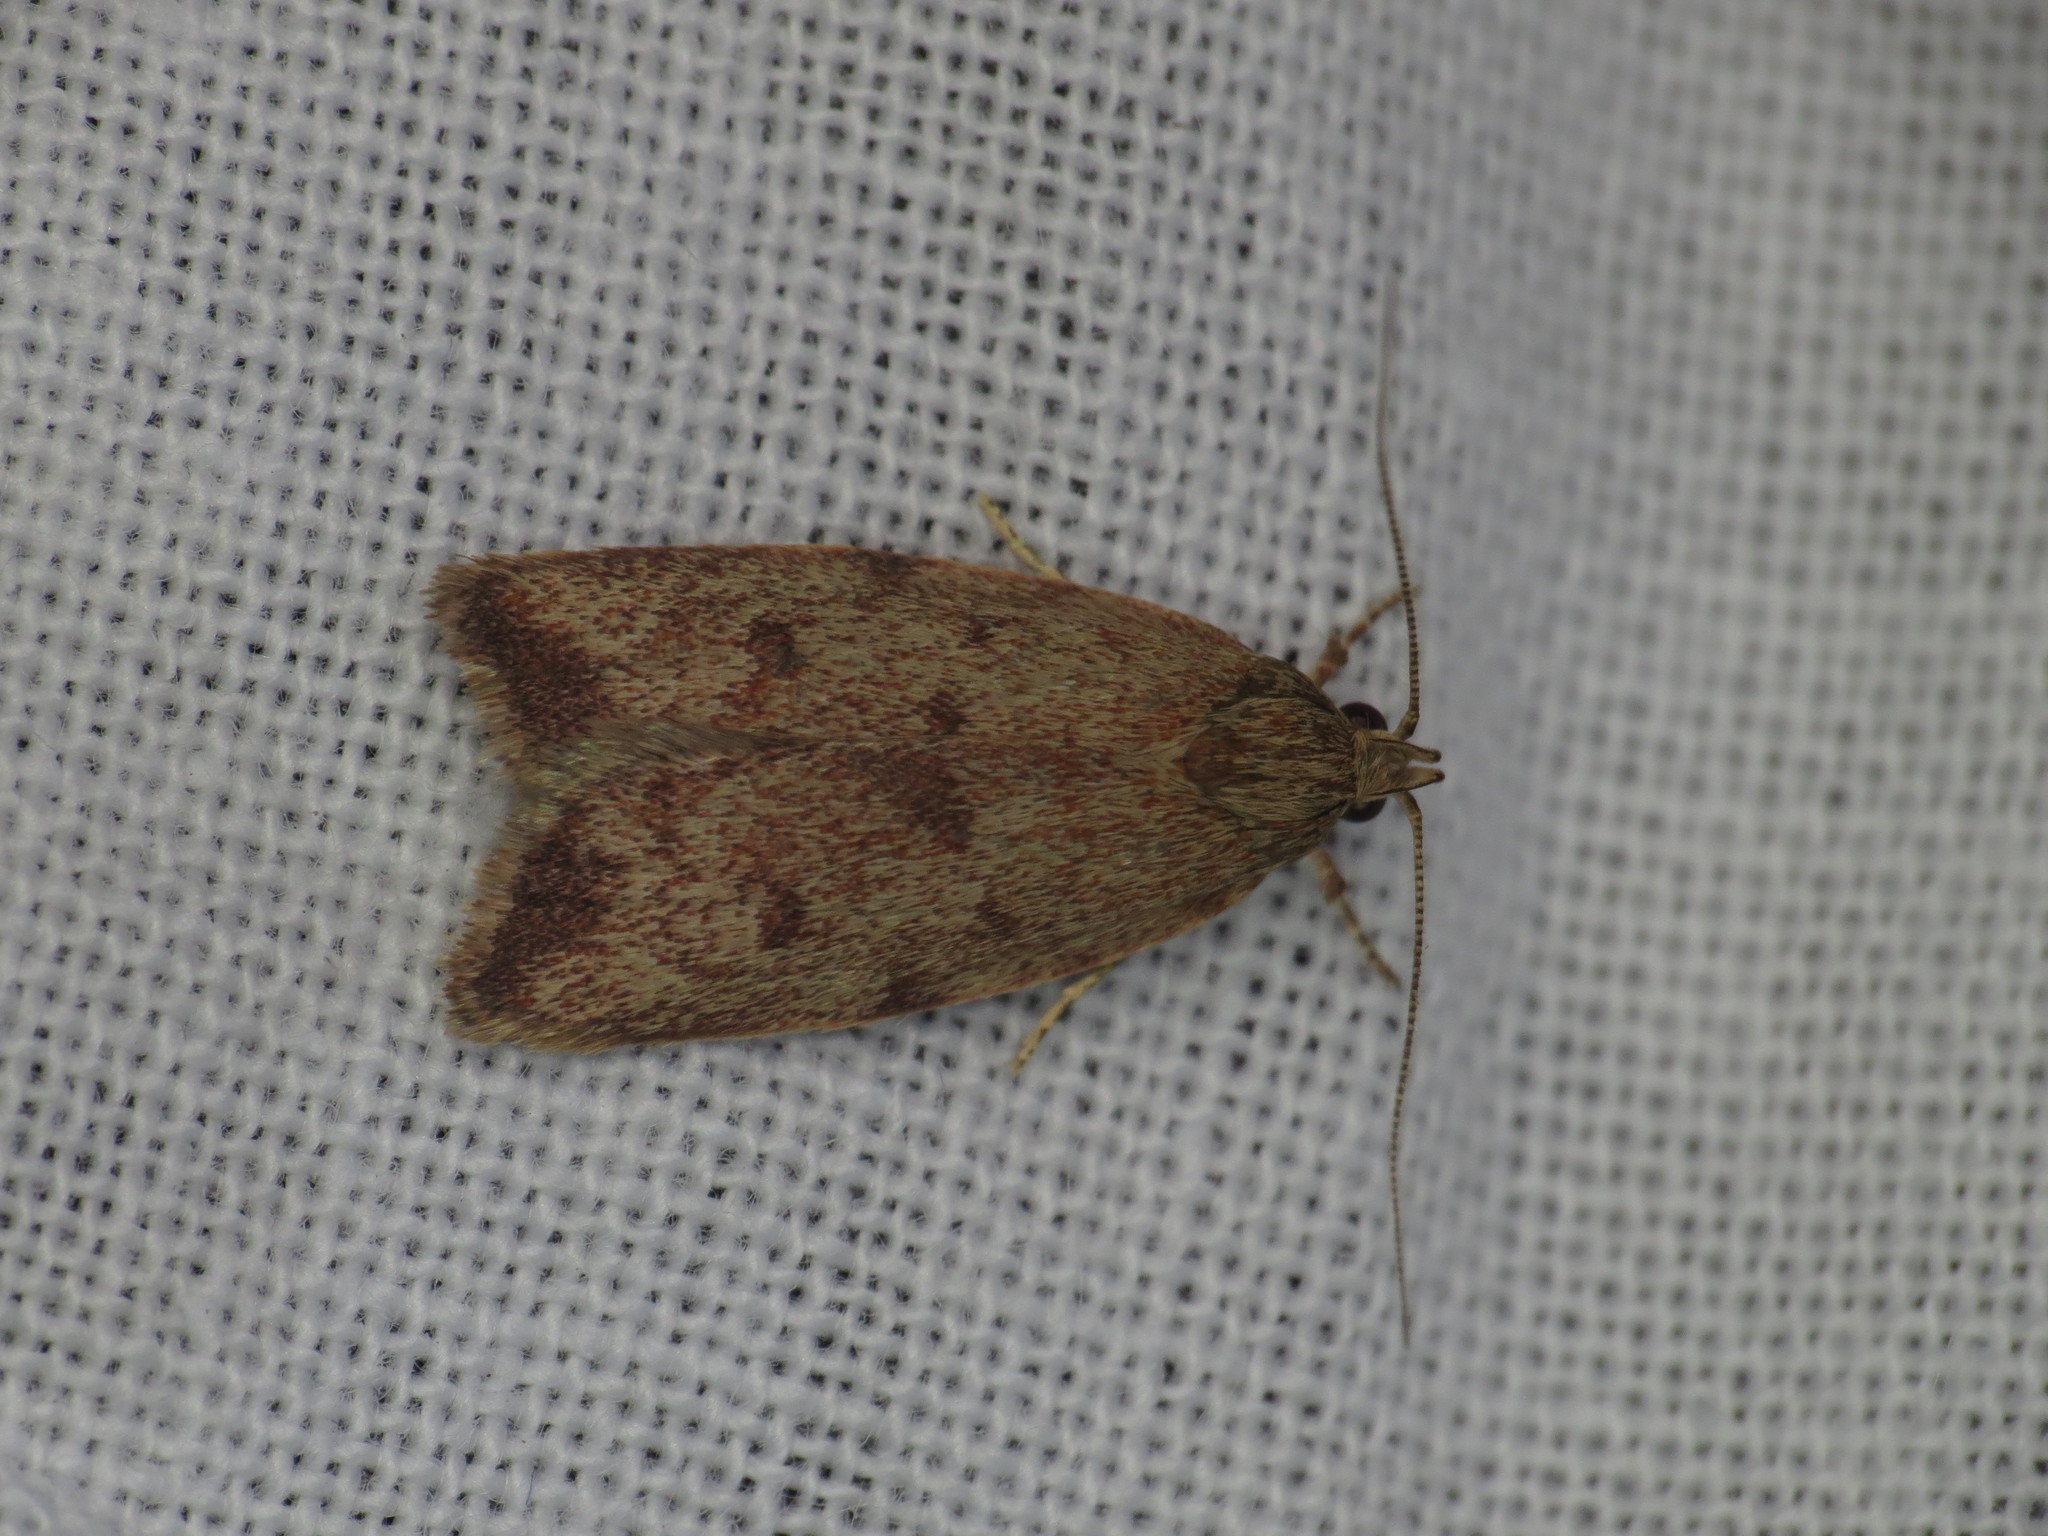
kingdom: Animalia
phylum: Arthropoda
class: Insecta
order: Lepidoptera
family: Oecophoridae
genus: Syringoseca
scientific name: Syringoseca mimica
